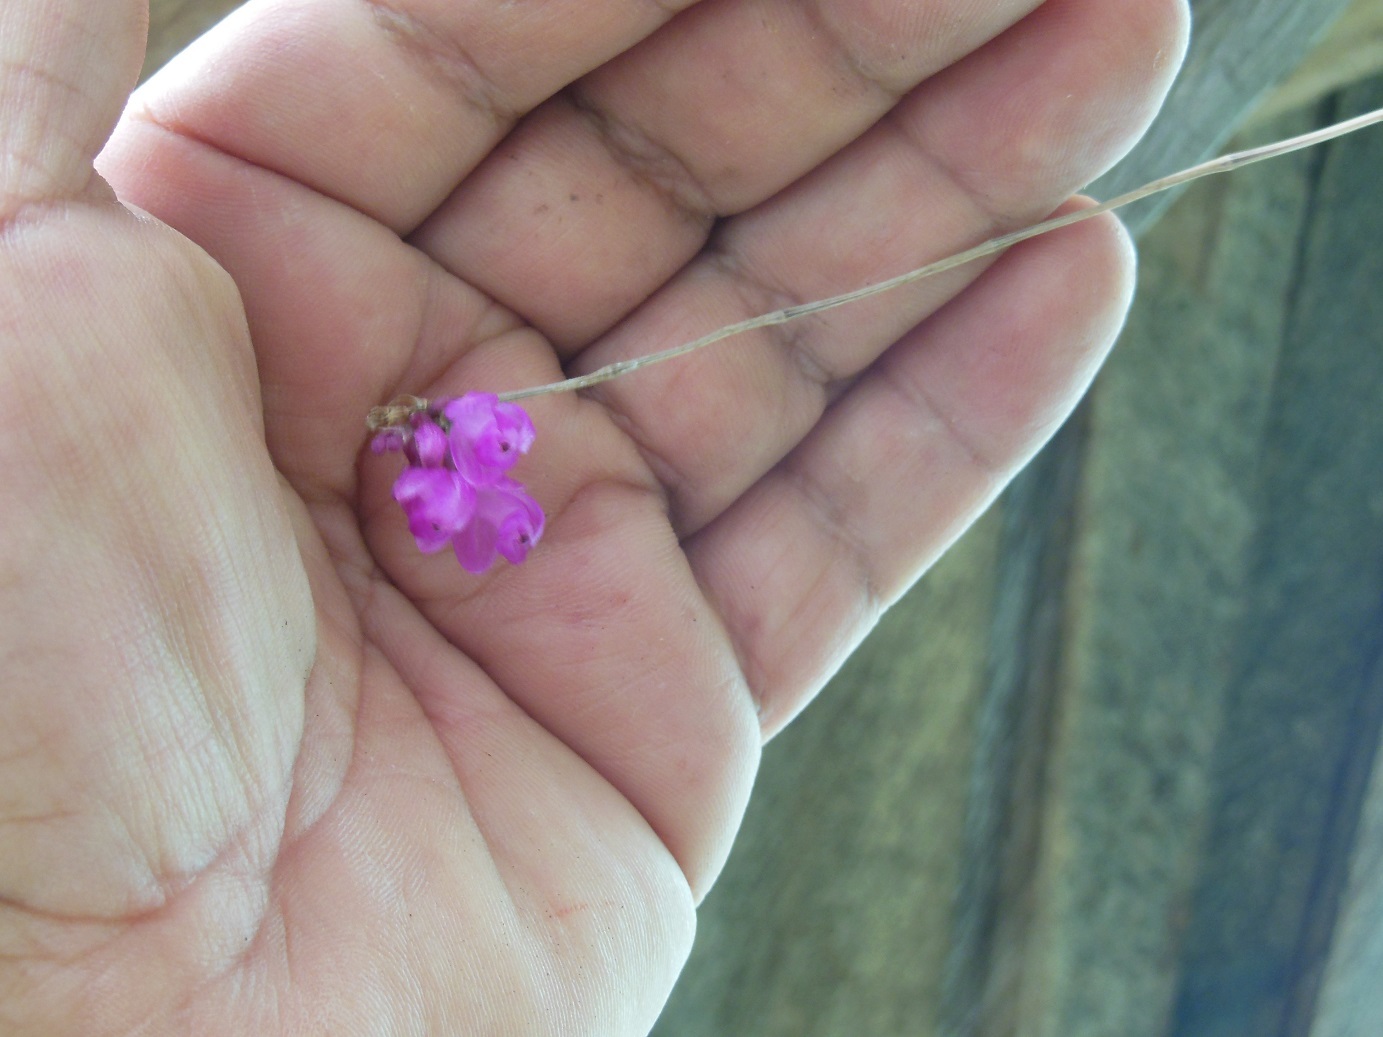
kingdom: Plantae
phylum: Tracheophyta
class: Liliopsida
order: Asparagales
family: Orchidaceae
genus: Domingoa
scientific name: Domingoa purpurea
